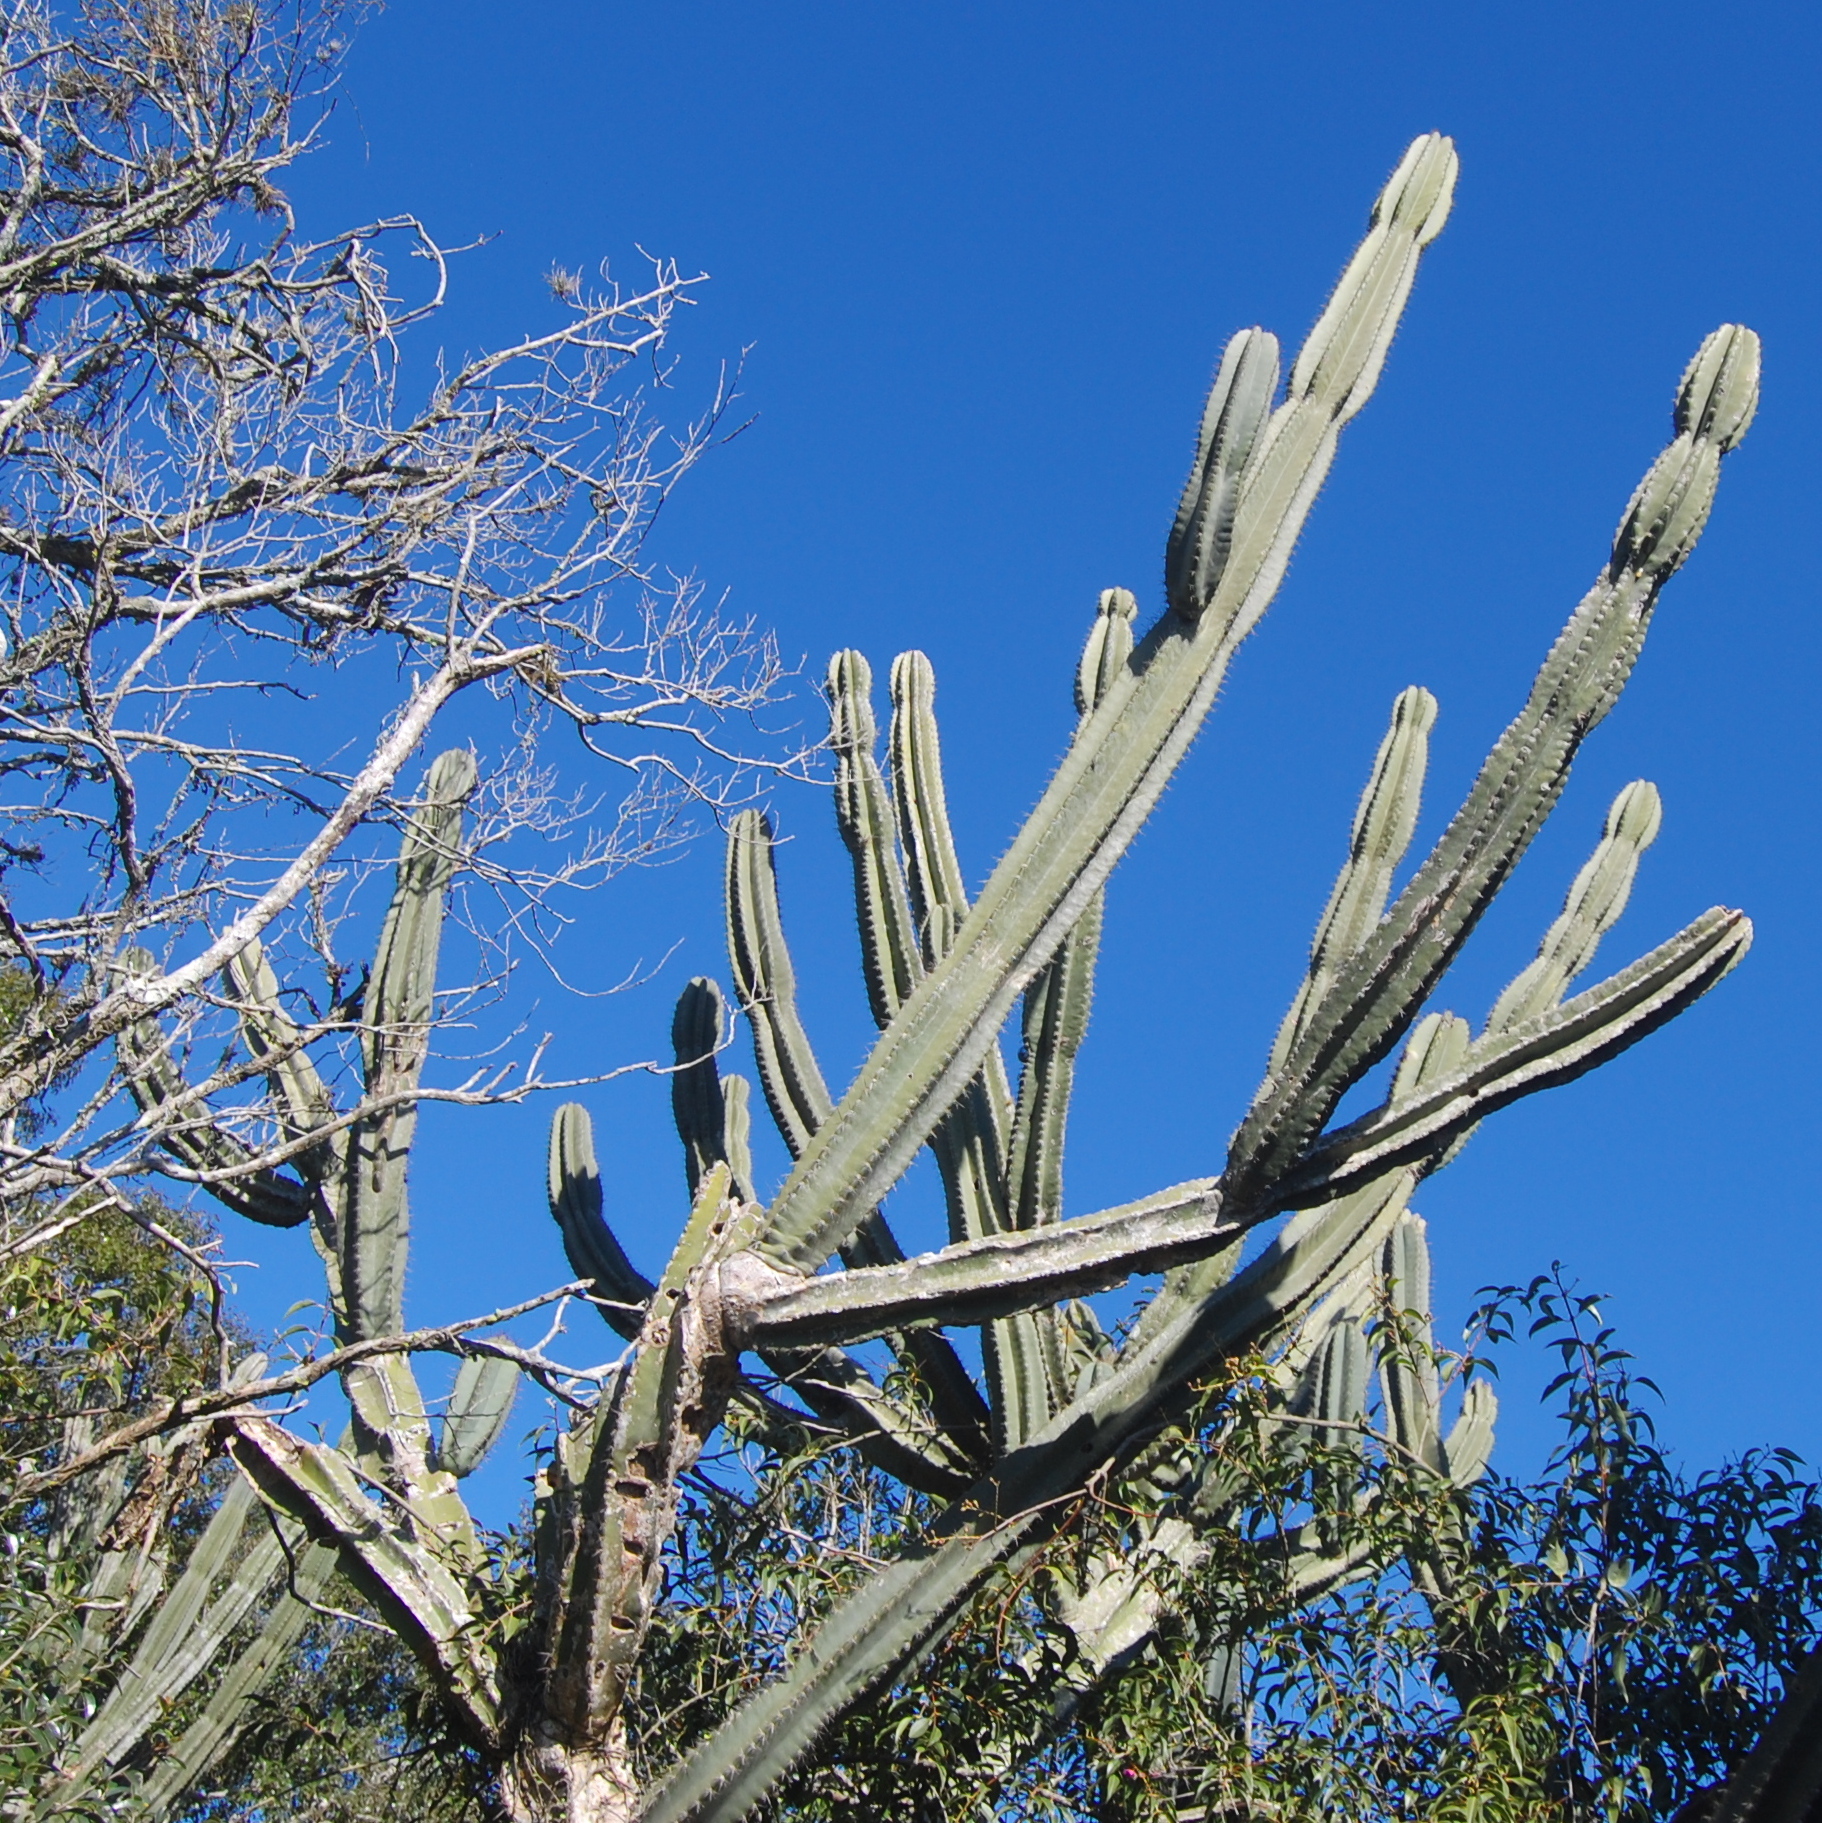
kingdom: Plantae
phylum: Tracheophyta
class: Magnoliopsida
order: Caryophyllales
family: Cactaceae
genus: Cereus
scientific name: Cereus hildmannianus
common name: Hedge cactus
